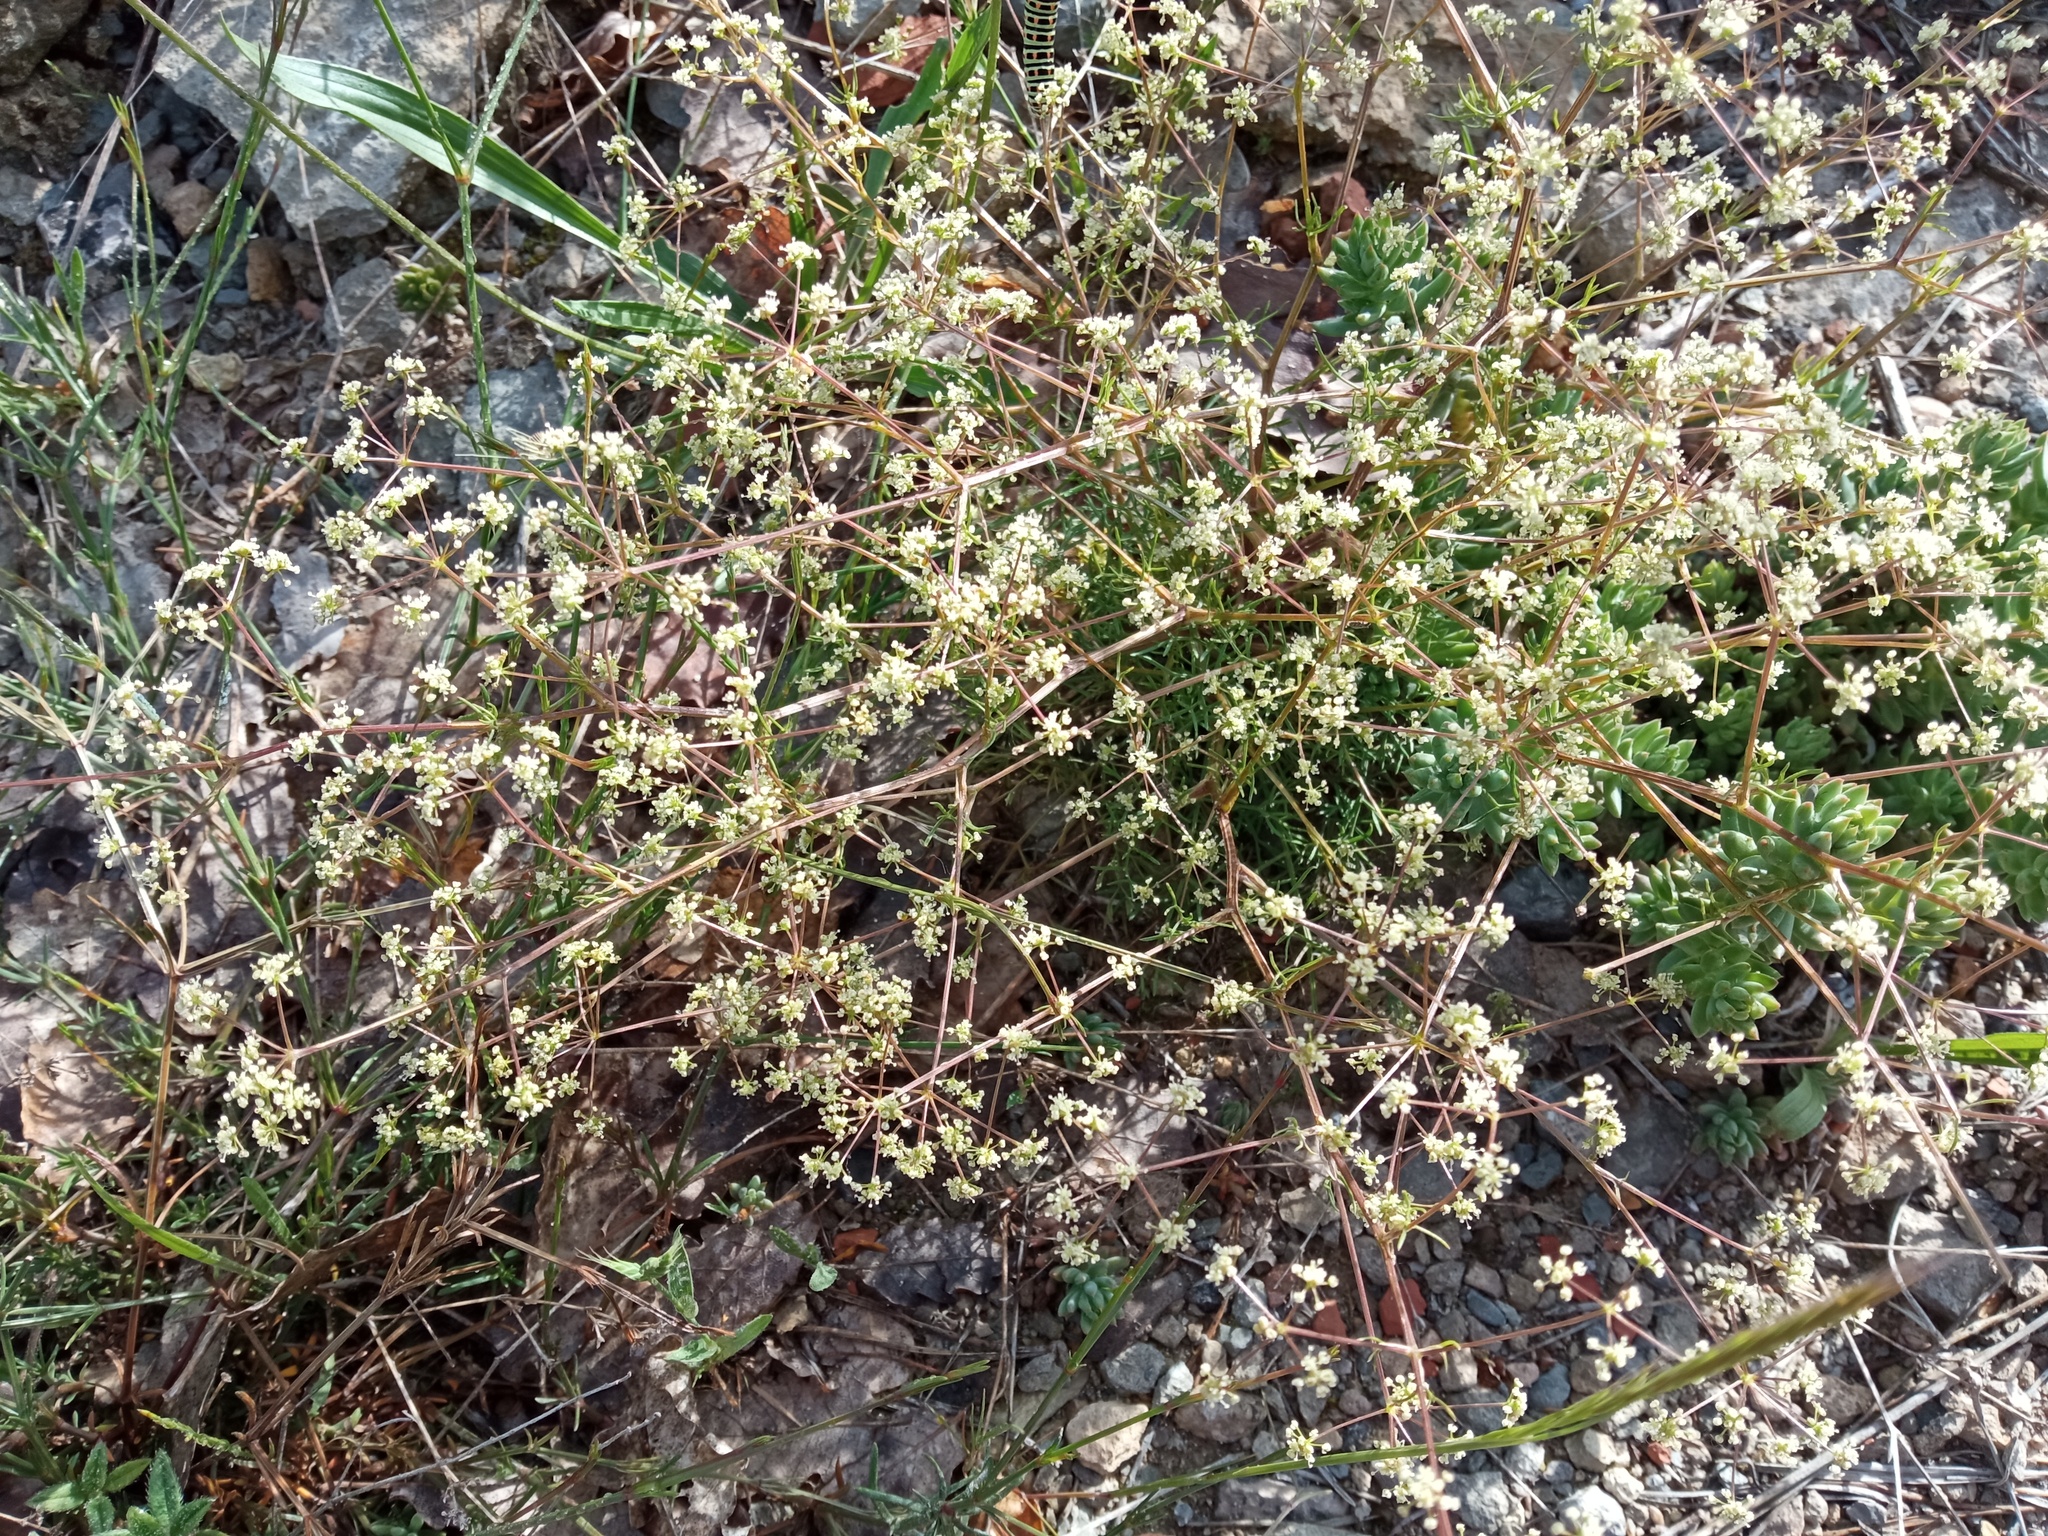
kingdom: Plantae
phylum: Tracheophyta
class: Magnoliopsida
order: Apiales
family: Apiaceae
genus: Trinia
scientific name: Trinia glauca
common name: Honewort
